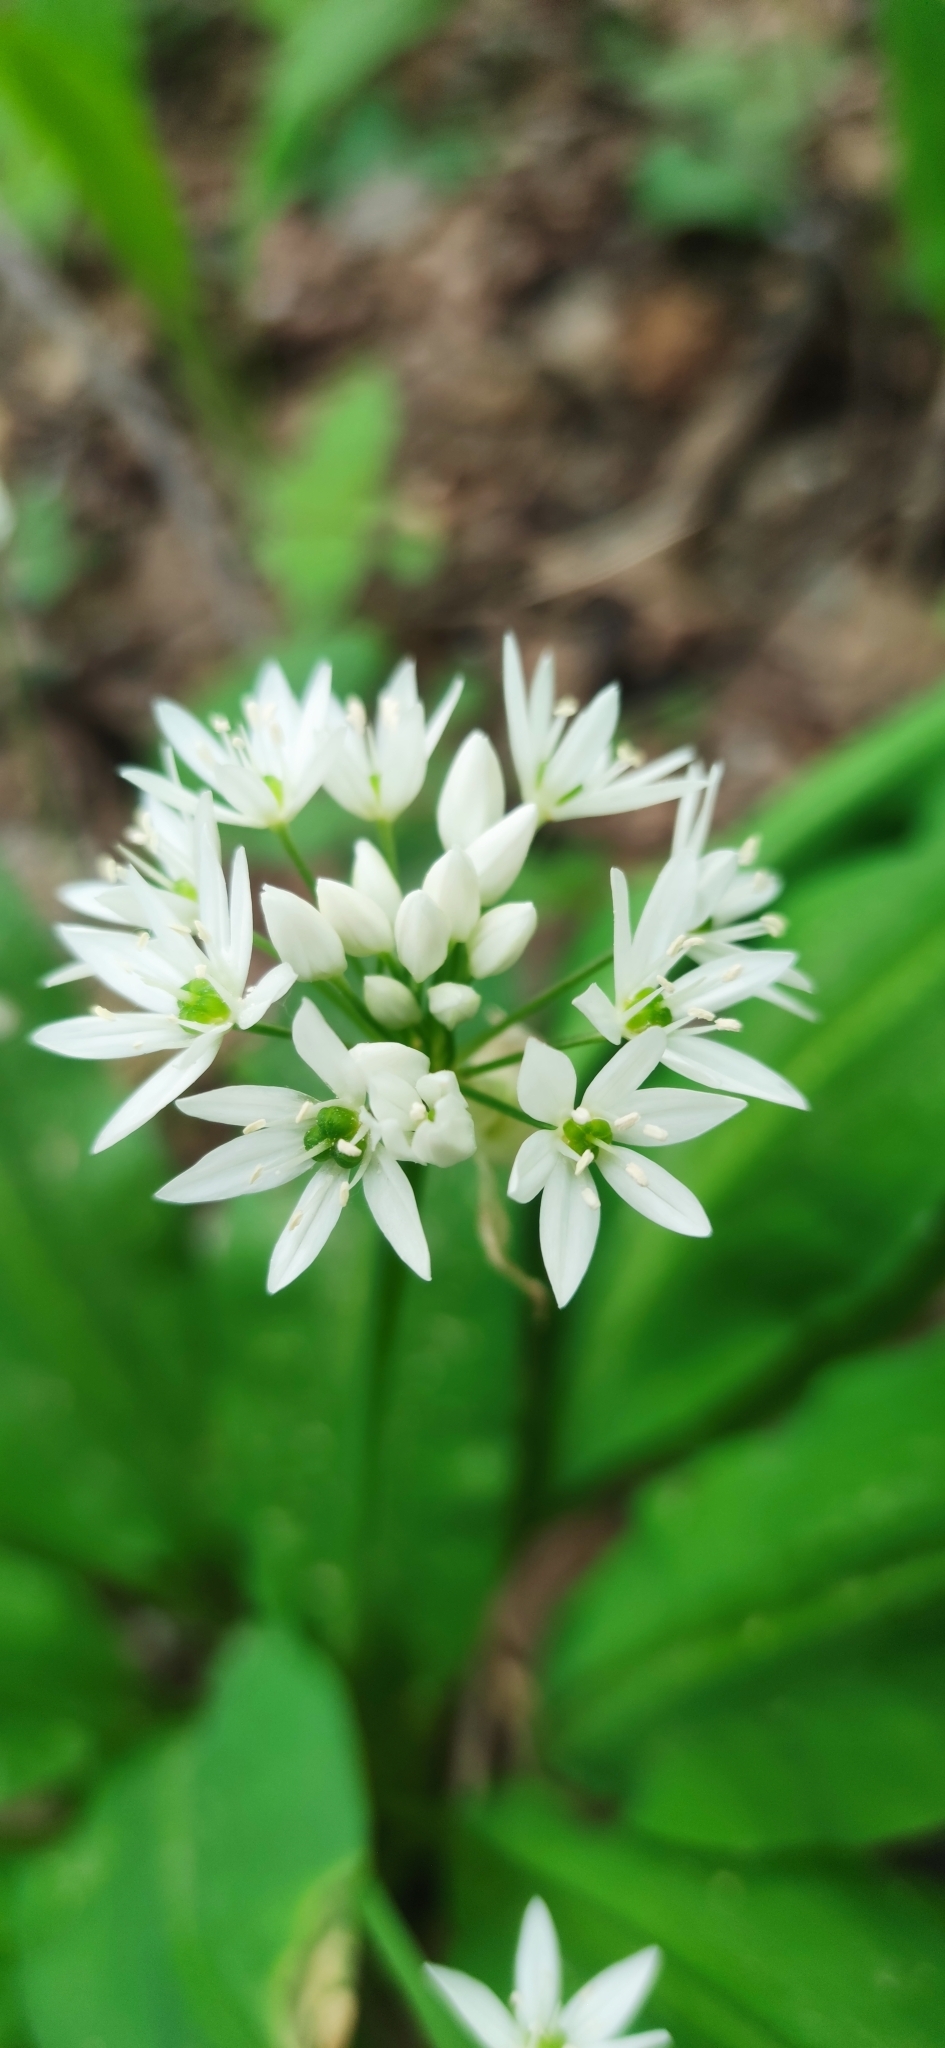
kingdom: Plantae
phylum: Tracheophyta
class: Liliopsida
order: Asparagales
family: Amaryllidaceae
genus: Allium
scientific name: Allium ursinum
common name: Ramsons
